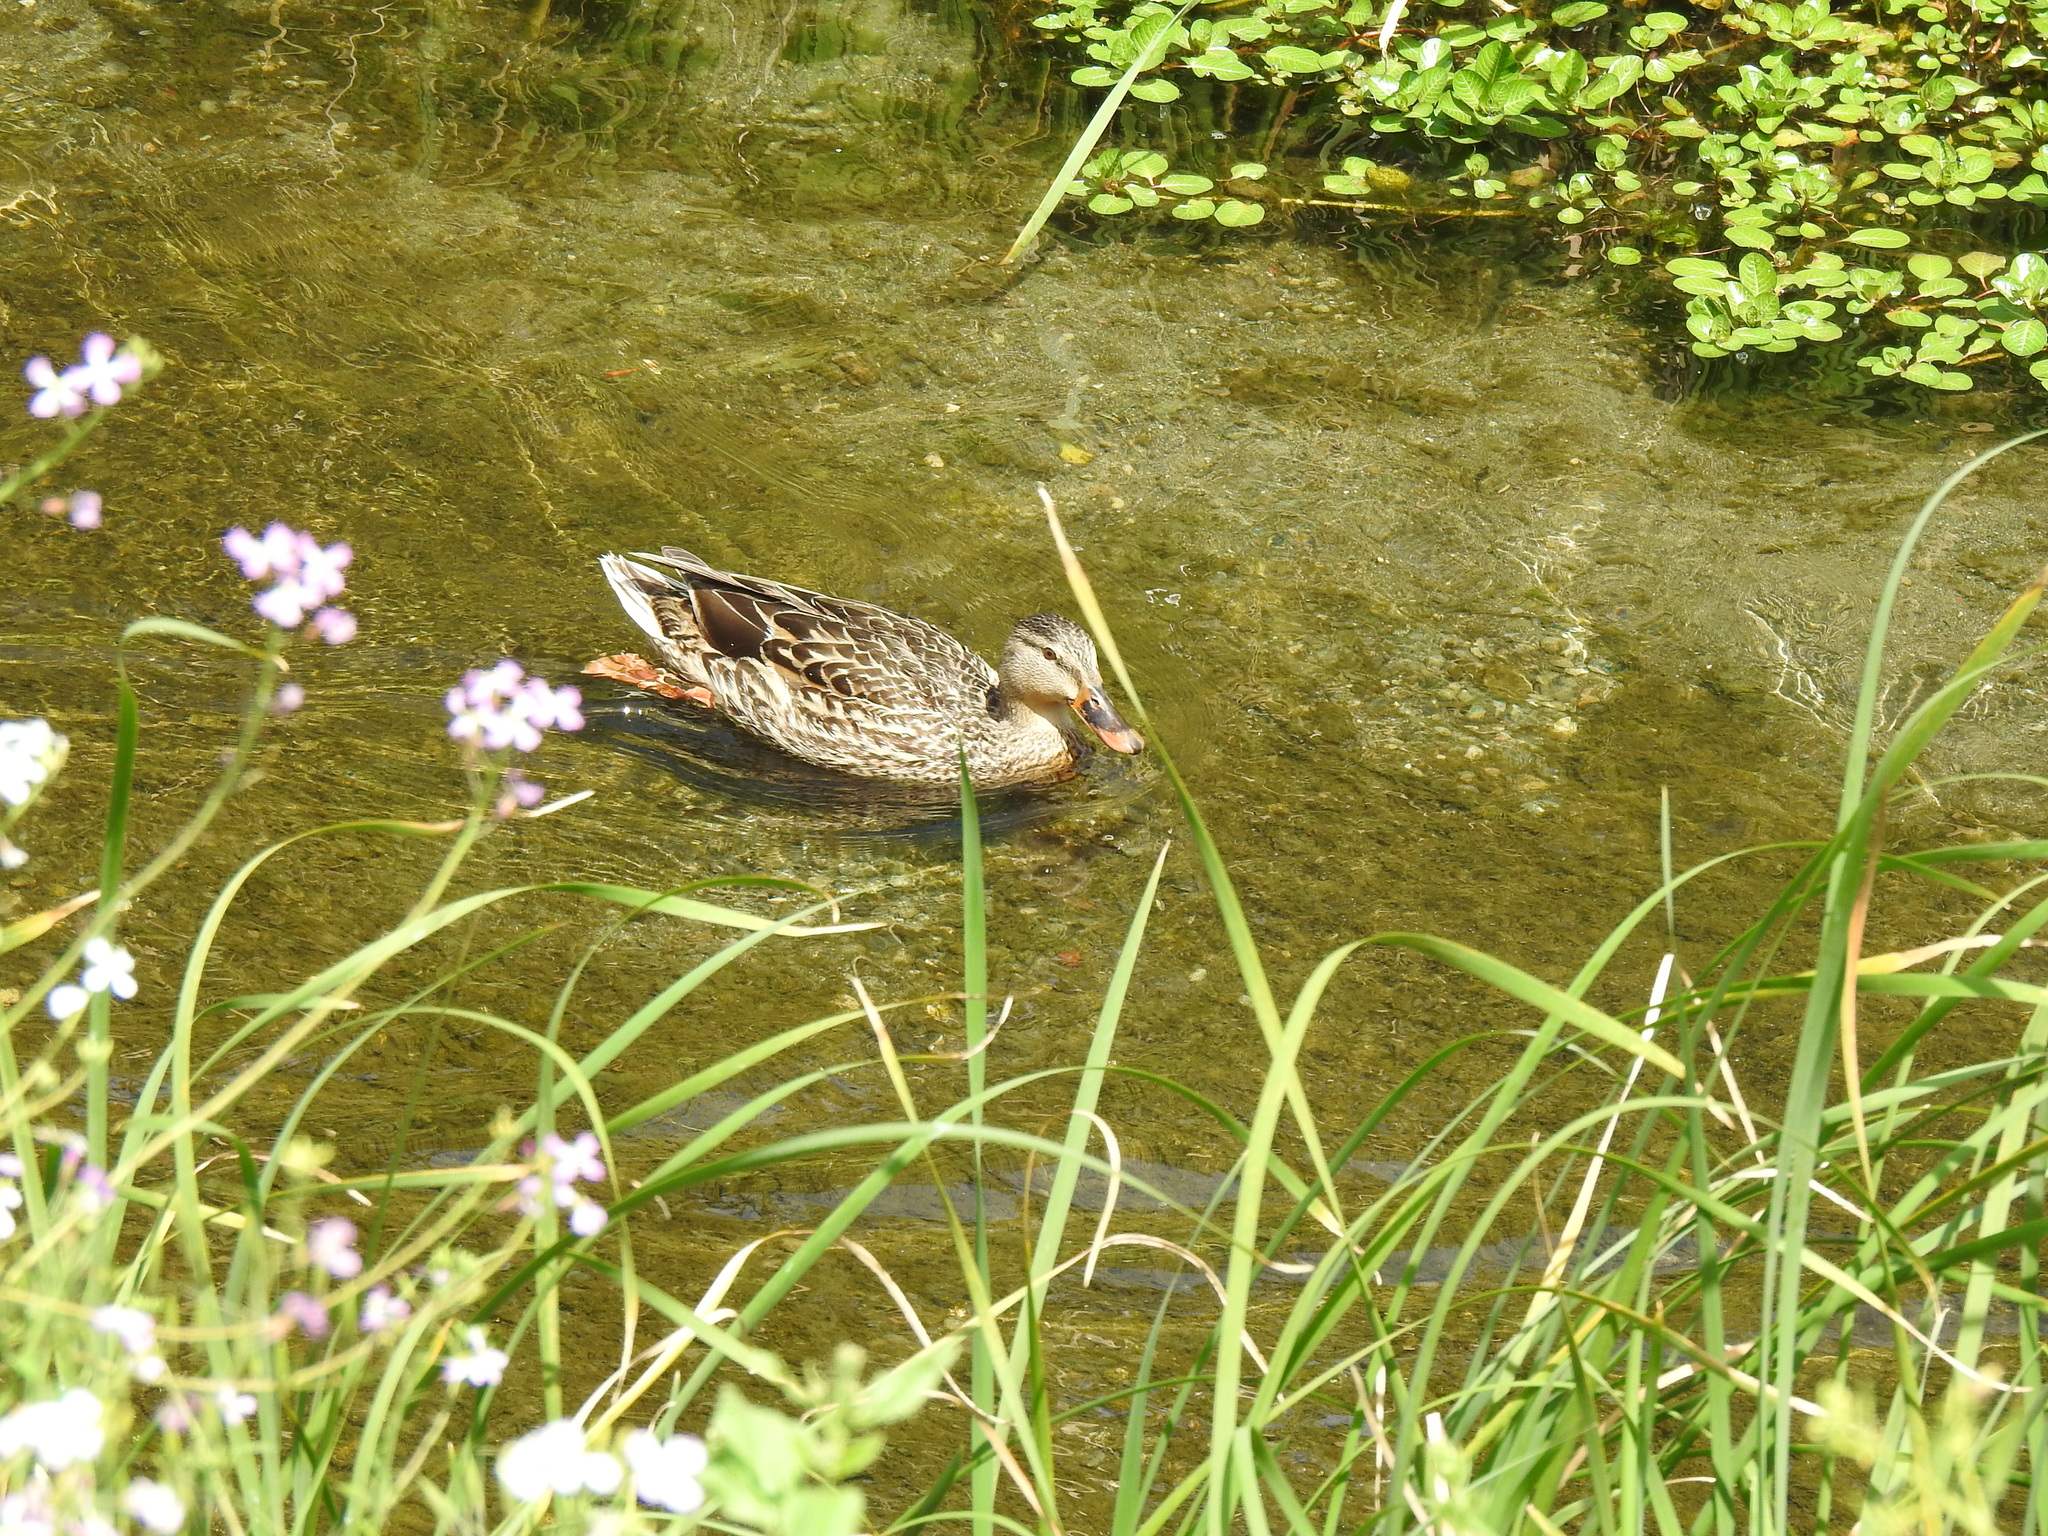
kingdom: Animalia
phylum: Chordata
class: Aves
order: Anseriformes
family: Anatidae
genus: Anas
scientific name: Anas platyrhynchos
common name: Mallard
